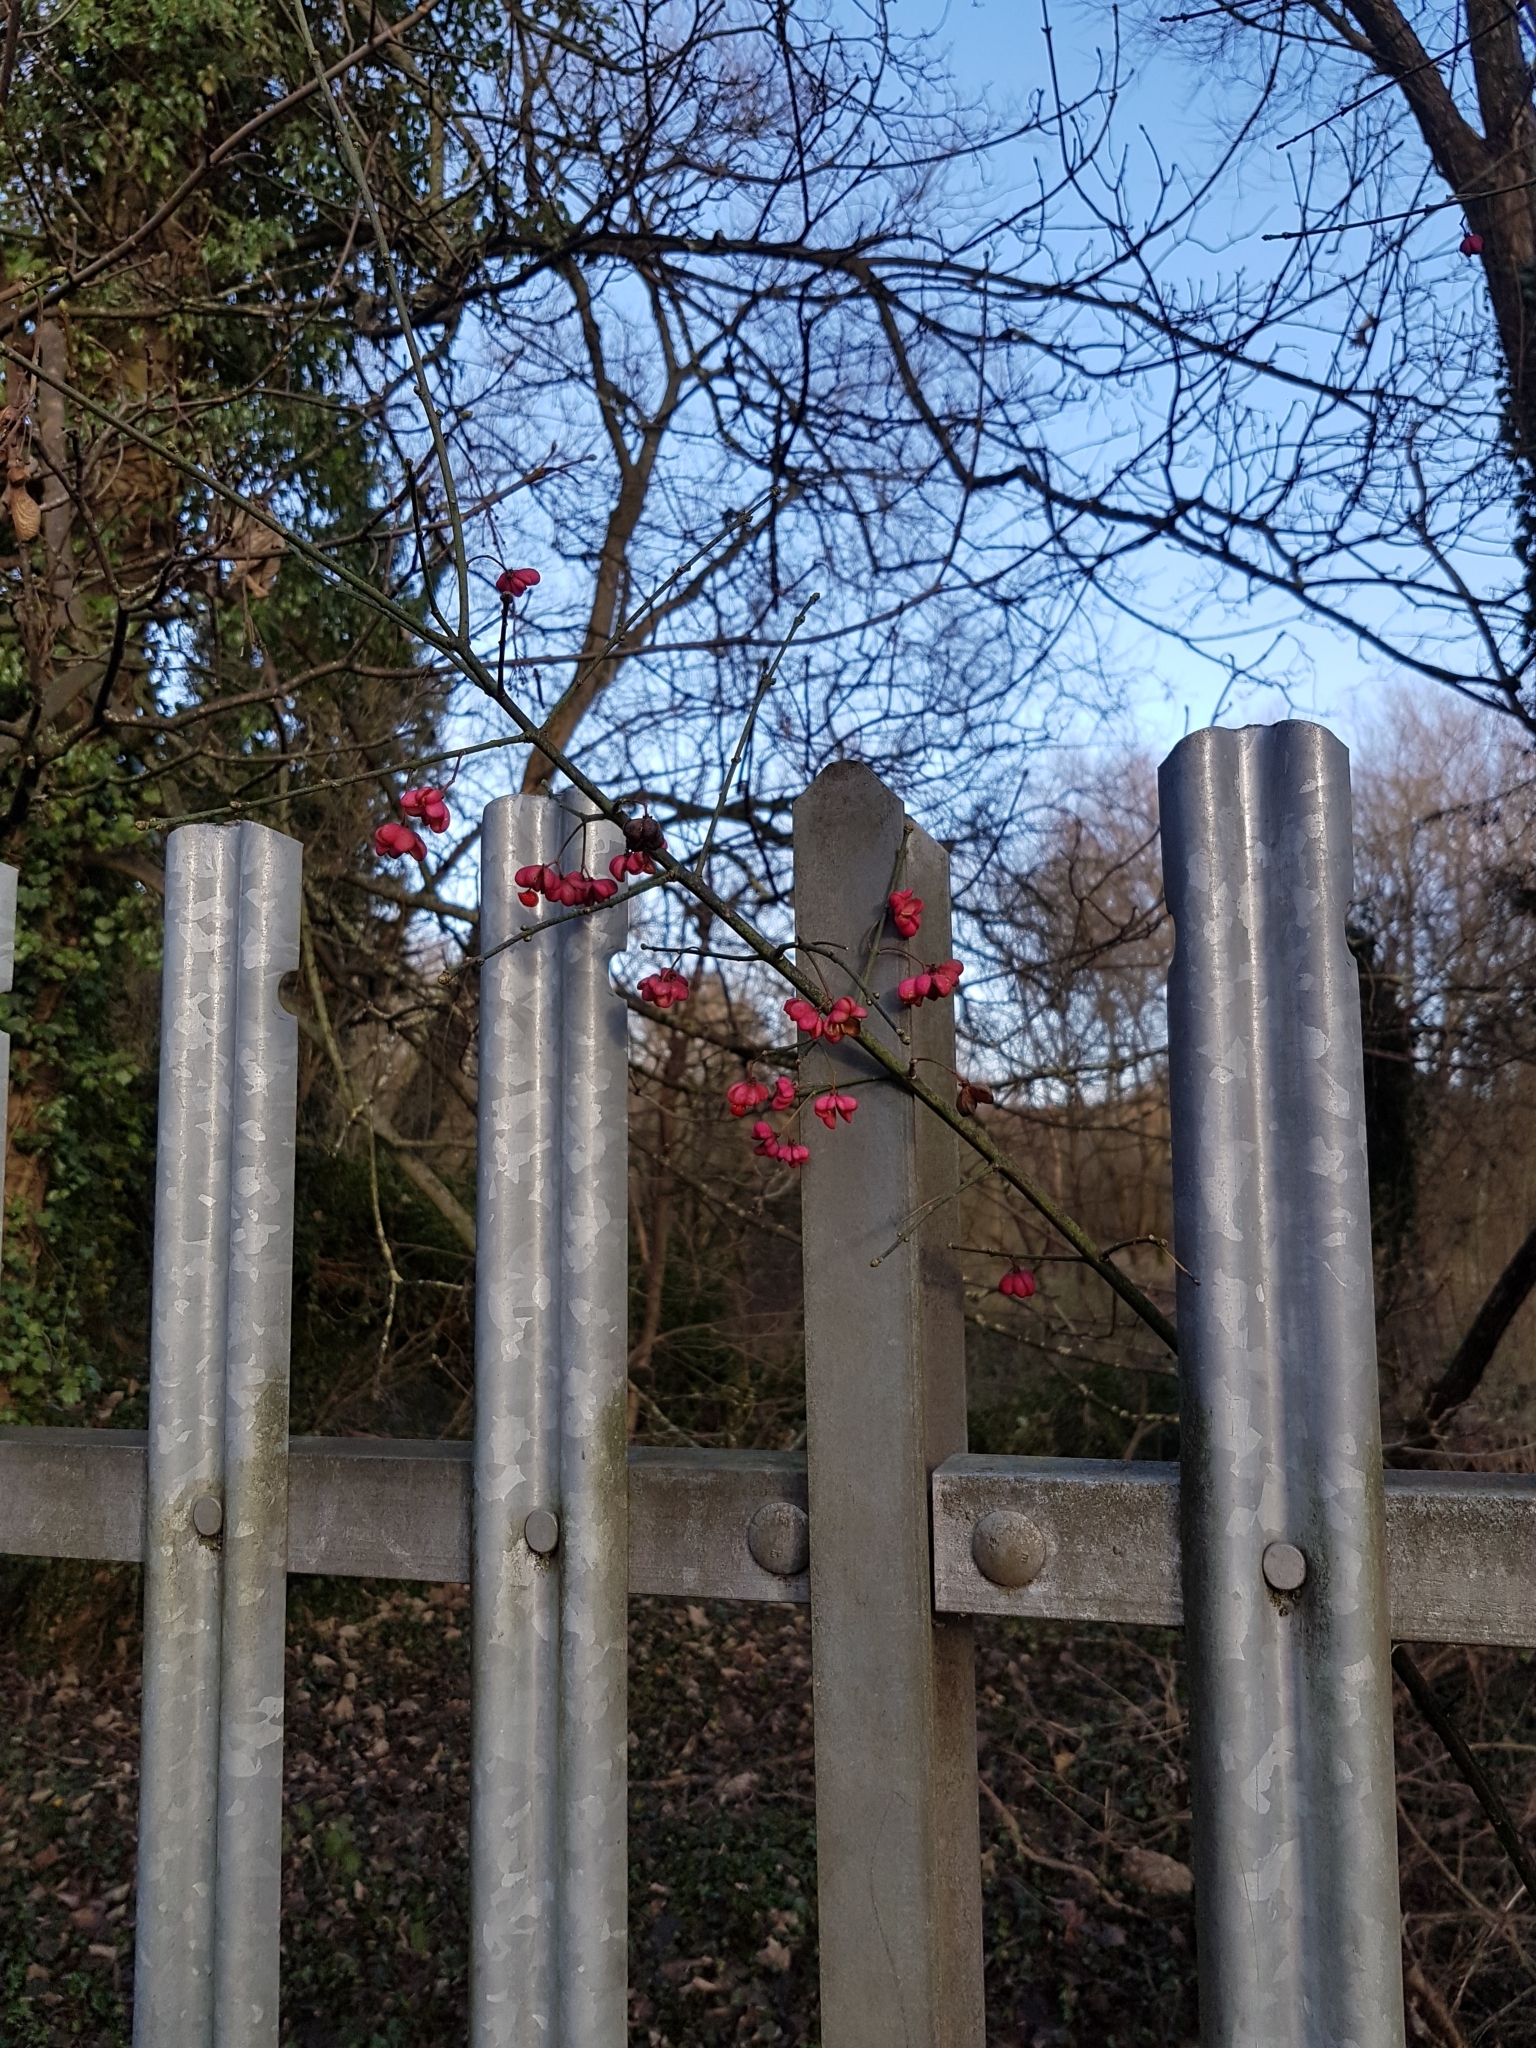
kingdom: Plantae
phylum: Tracheophyta
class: Magnoliopsida
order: Celastrales
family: Celastraceae
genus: Euonymus
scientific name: Euonymus europaeus
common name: Spindle
